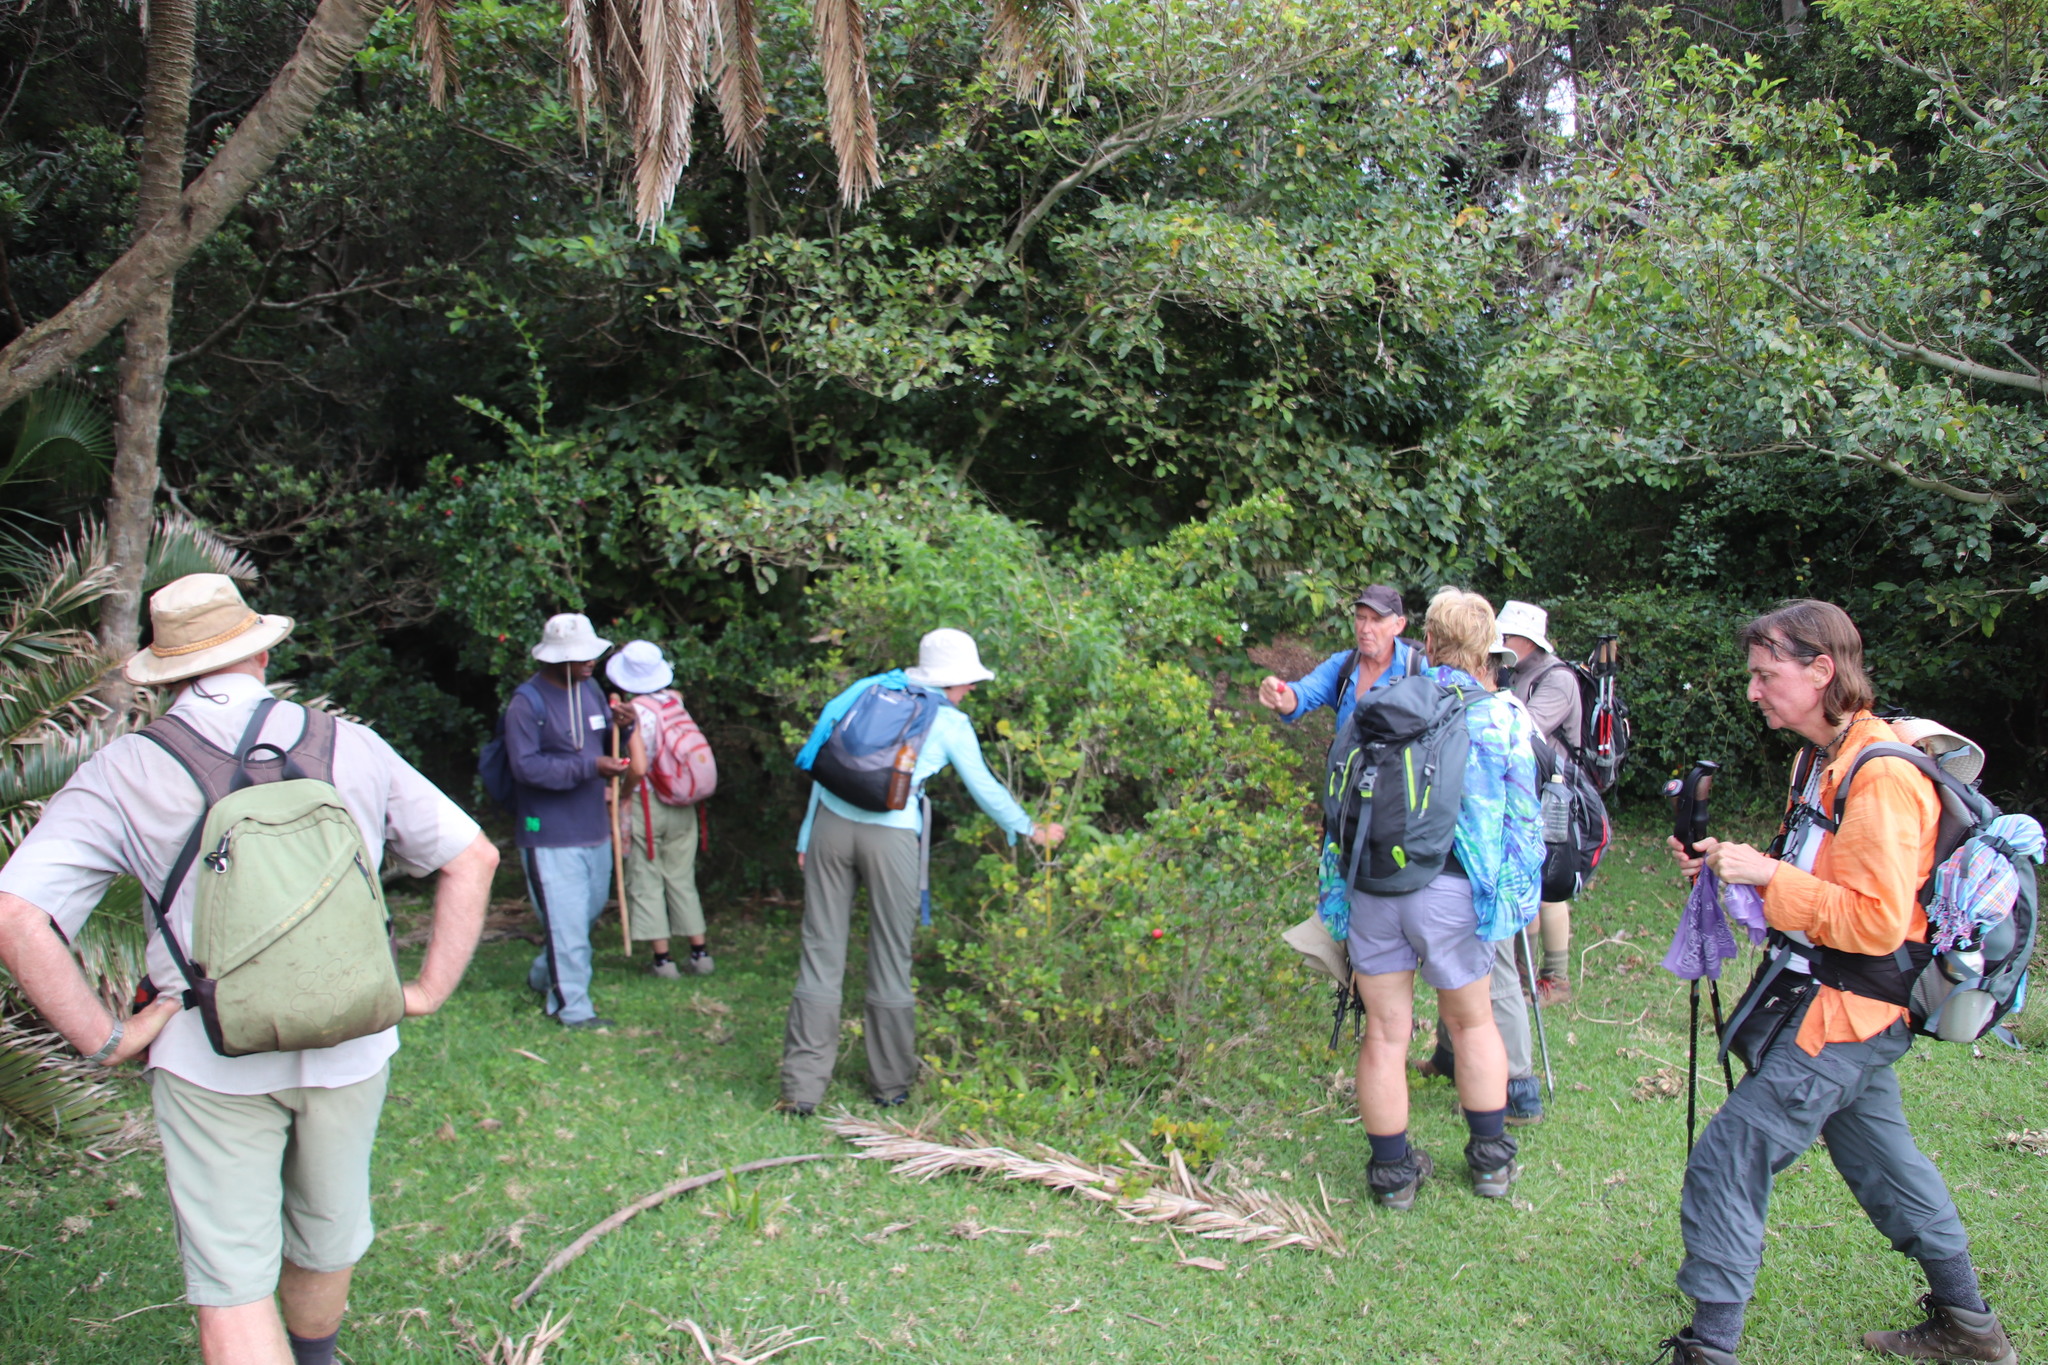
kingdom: Plantae
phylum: Tracheophyta
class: Magnoliopsida
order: Gentianales
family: Apocynaceae
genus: Carissa
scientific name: Carissa macrocarpa
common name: Natal plum
